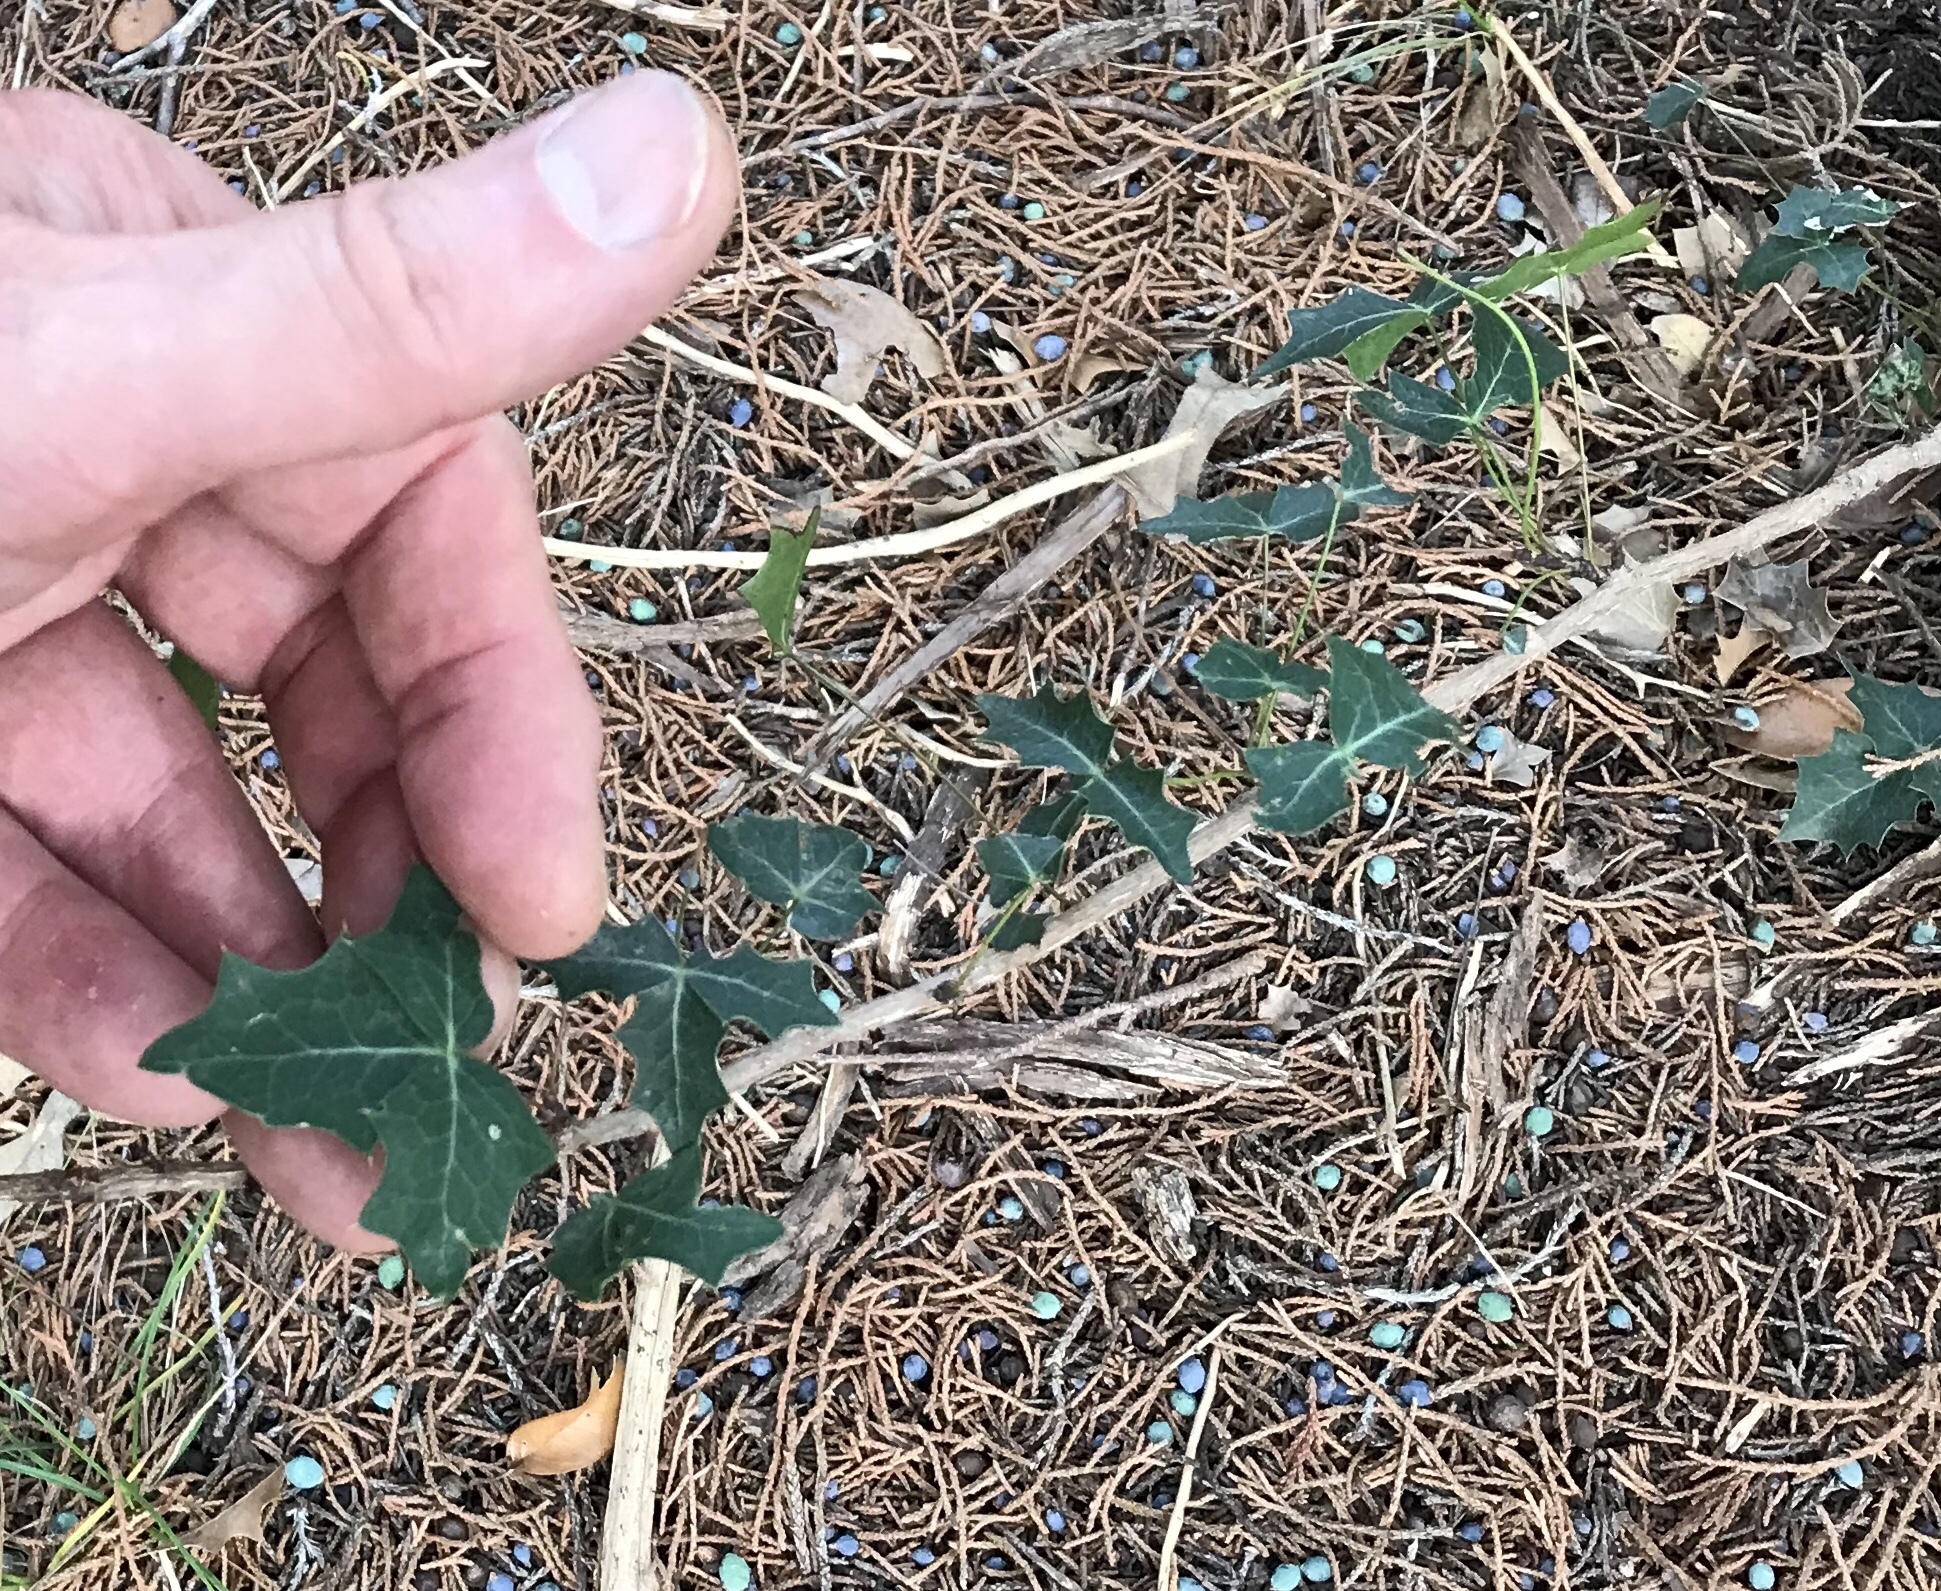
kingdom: Plantae
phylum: Tracheophyta
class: Magnoliopsida
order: Ranunculales
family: Berberidaceae
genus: Alloberberis
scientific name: Alloberberis trifoliolata
